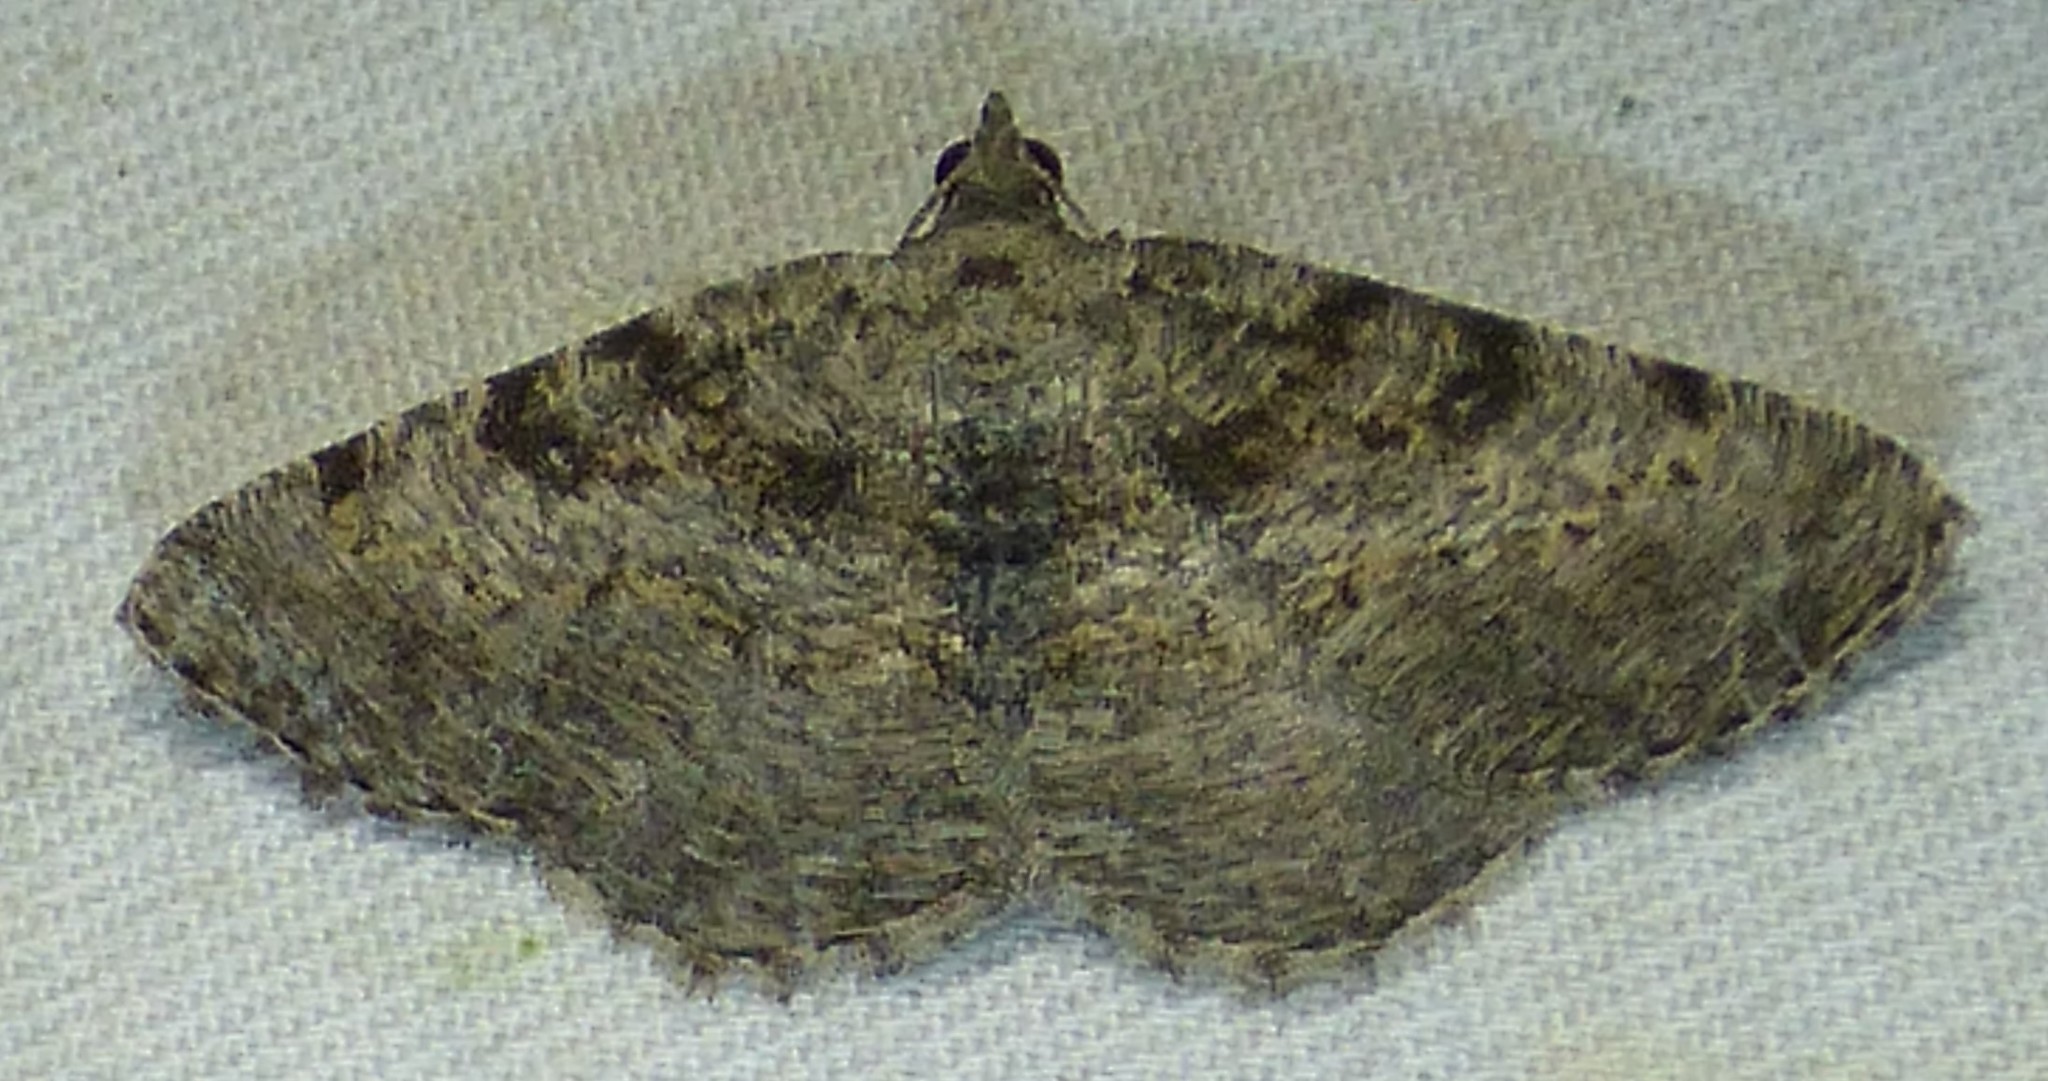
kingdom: Animalia
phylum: Arthropoda
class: Insecta
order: Lepidoptera
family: Geometridae
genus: Digrammia
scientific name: Digrammia gnophosaria
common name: Hollow-spotted angle
